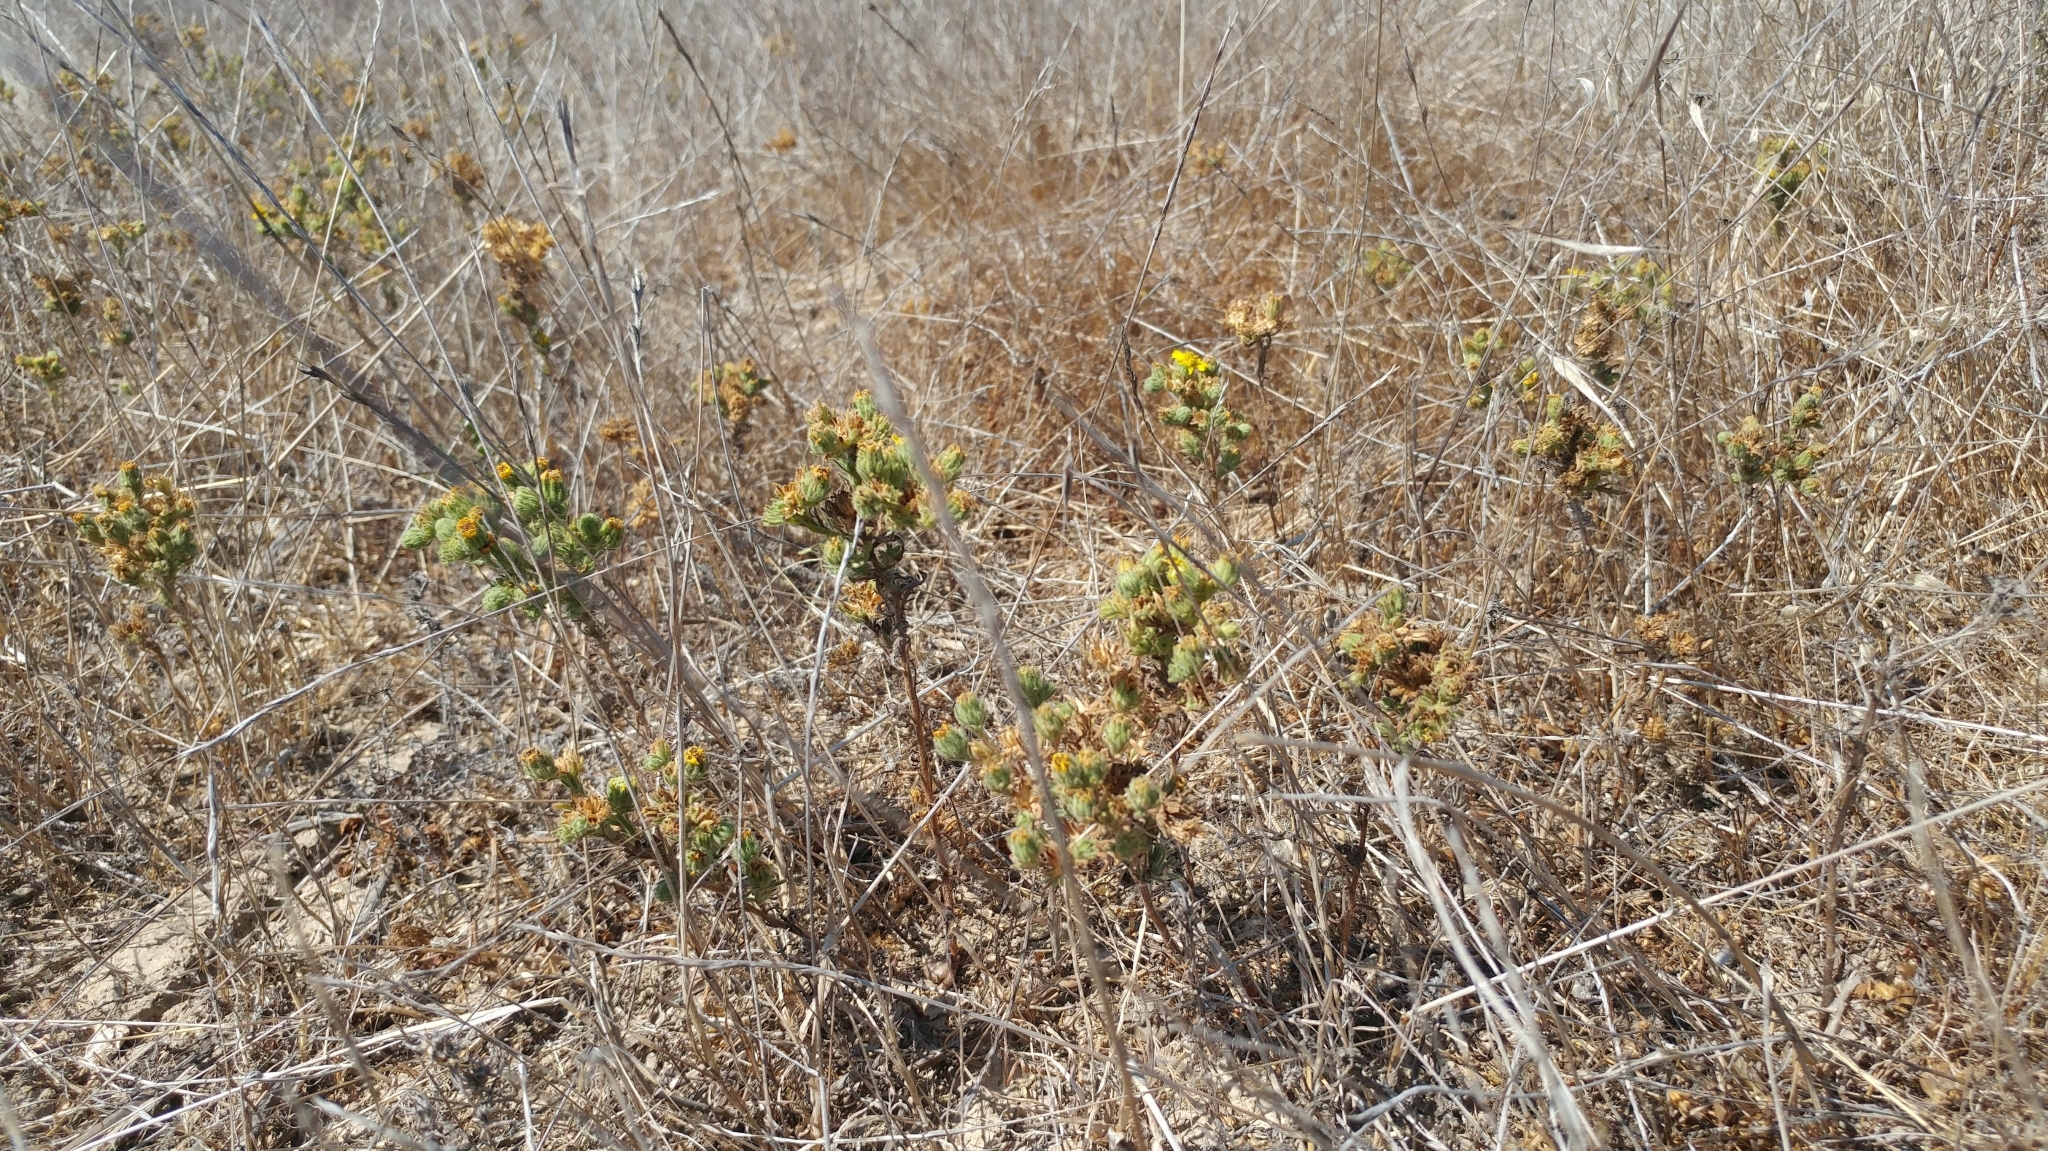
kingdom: Plantae
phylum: Tracheophyta
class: Magnoliopsida
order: Asterales
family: Asteraceae
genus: Deinandra
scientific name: Deinandra increscens
